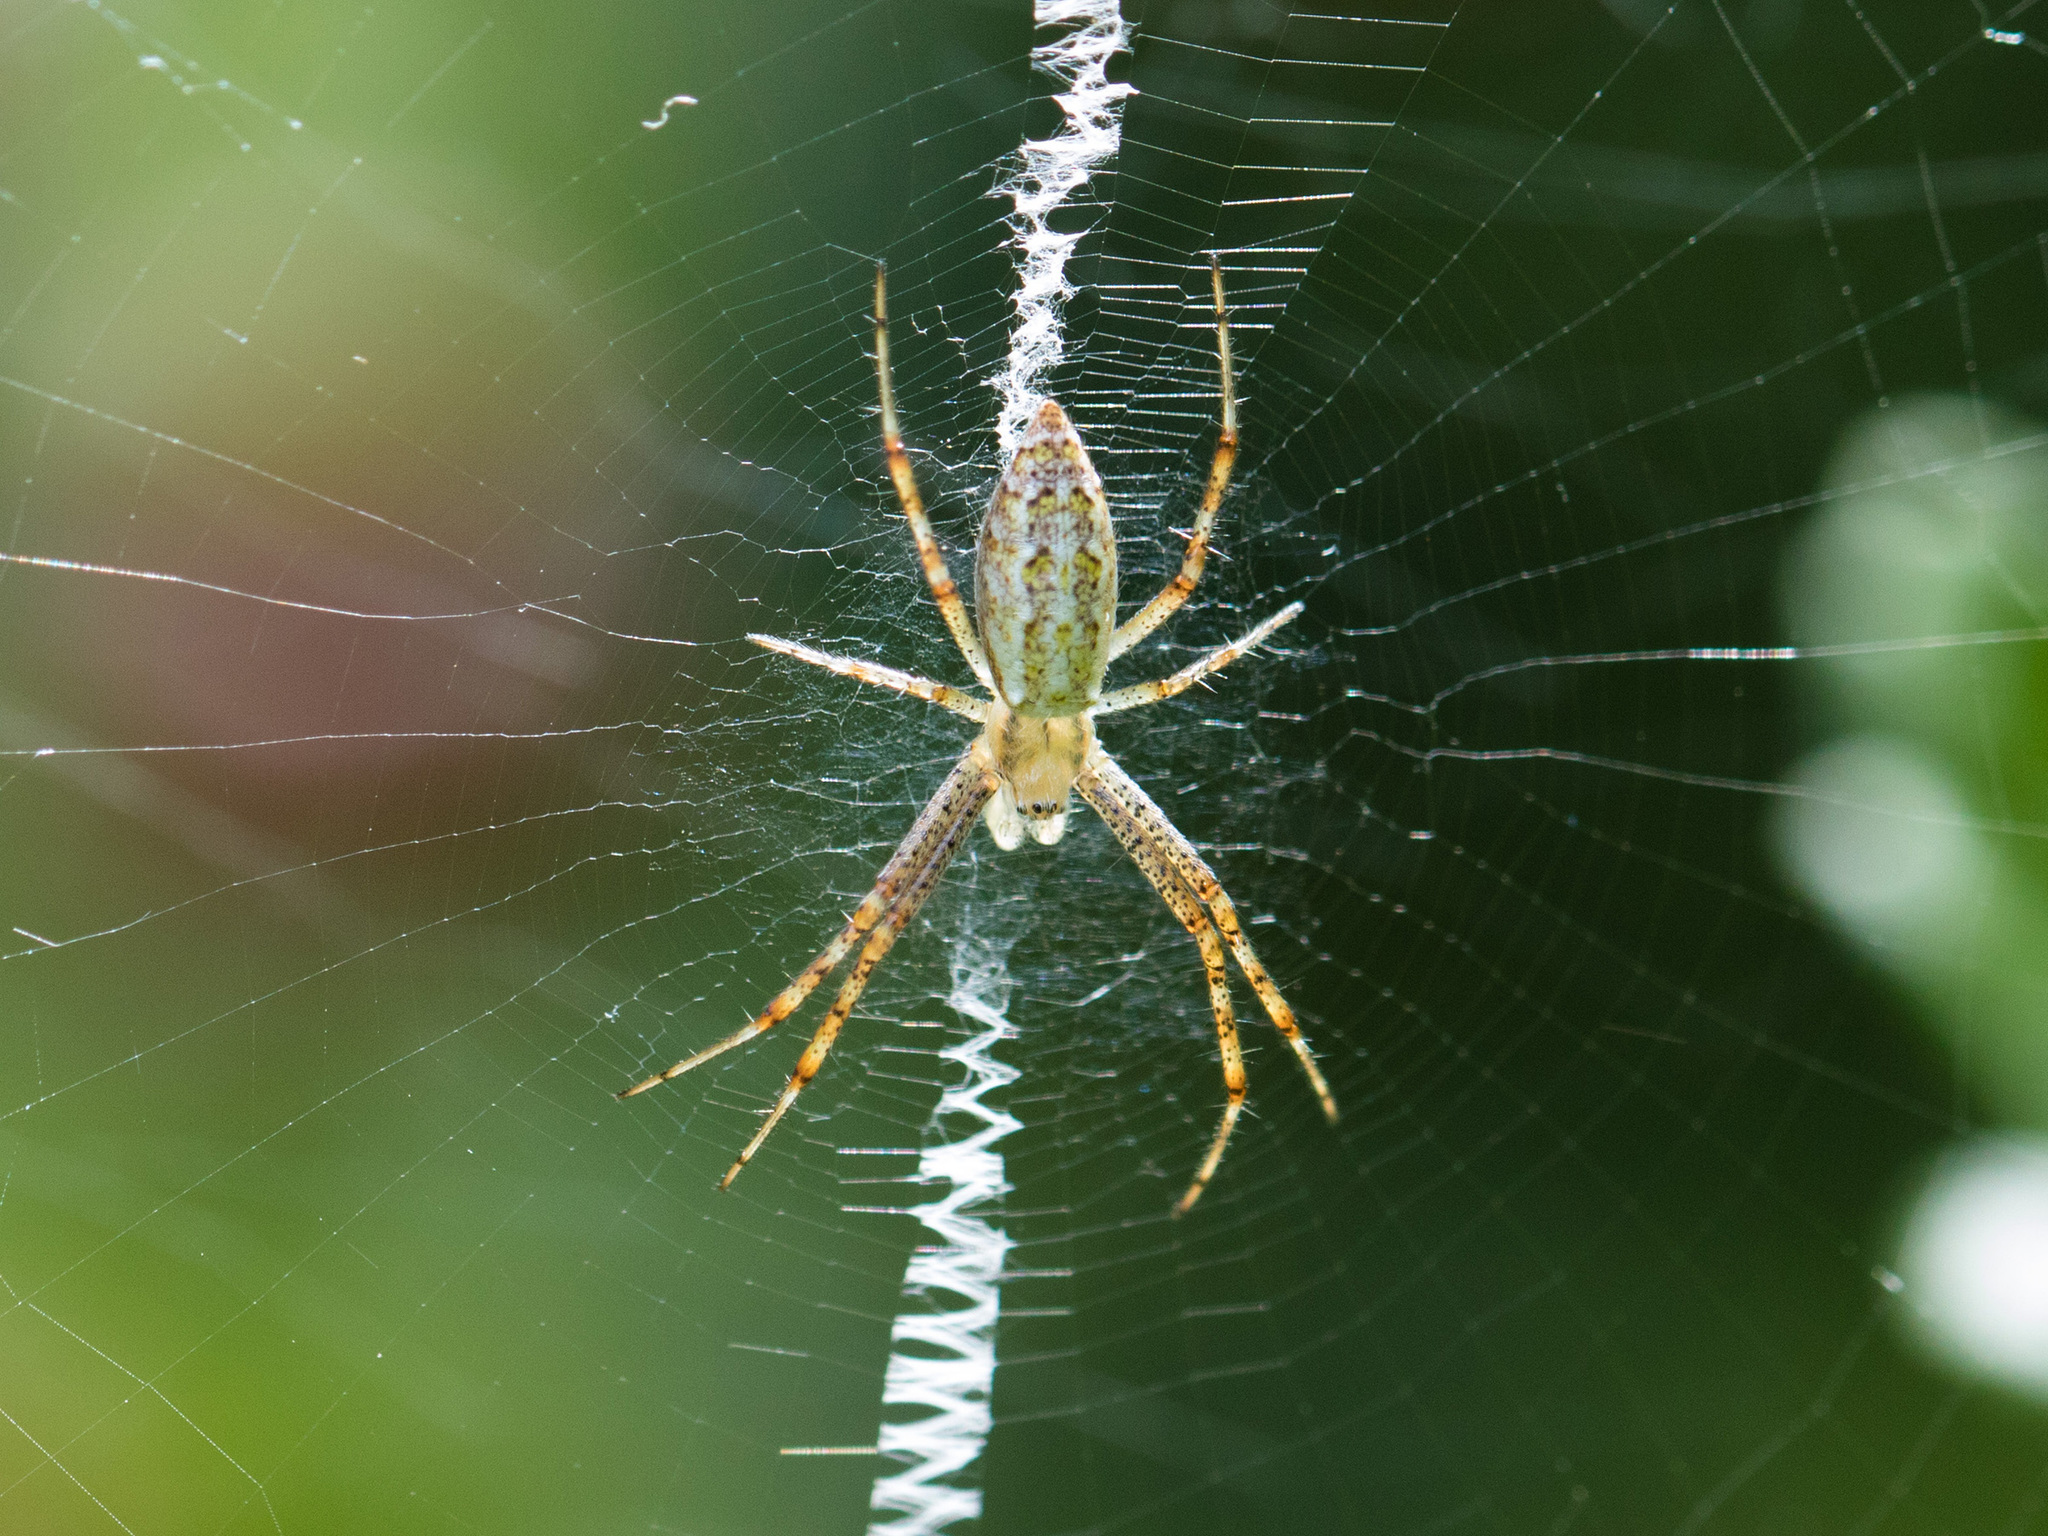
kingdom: Animalia
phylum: Arthropoda
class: Arachnida
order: Araneae
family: Araneidae
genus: Argiope
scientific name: Argiope bruennichi
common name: Wasp spider
